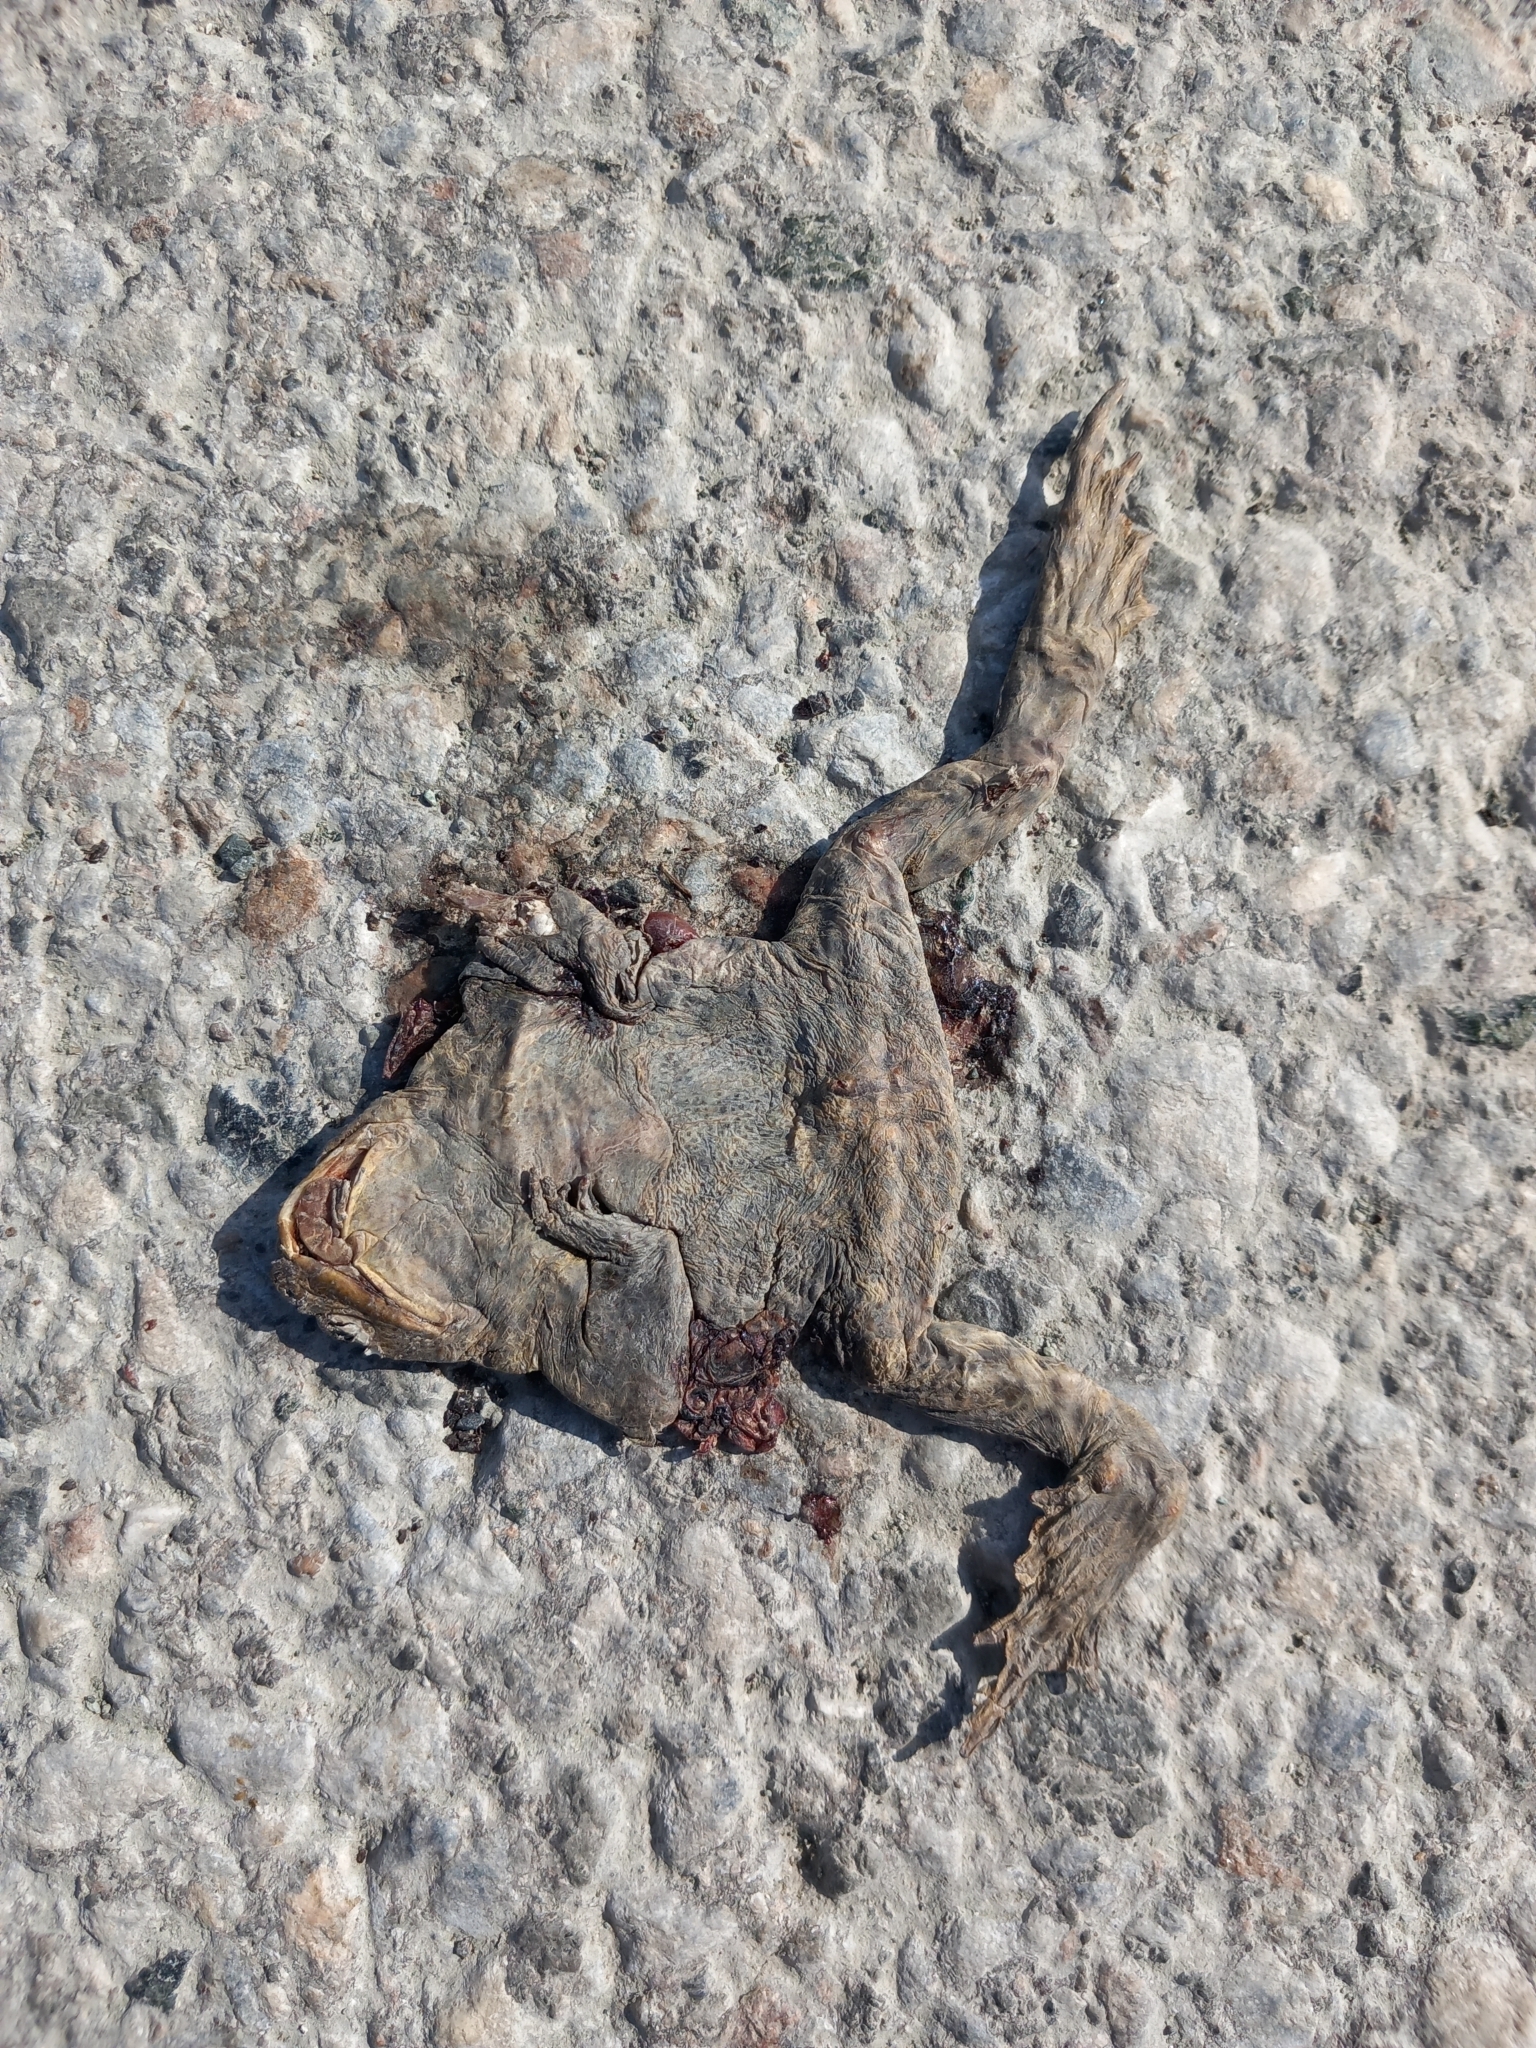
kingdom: Animalia
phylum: Chordata
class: Amphibia
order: Anura
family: Bufonidae
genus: Bufo
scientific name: Bufo bufo
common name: Common toad
